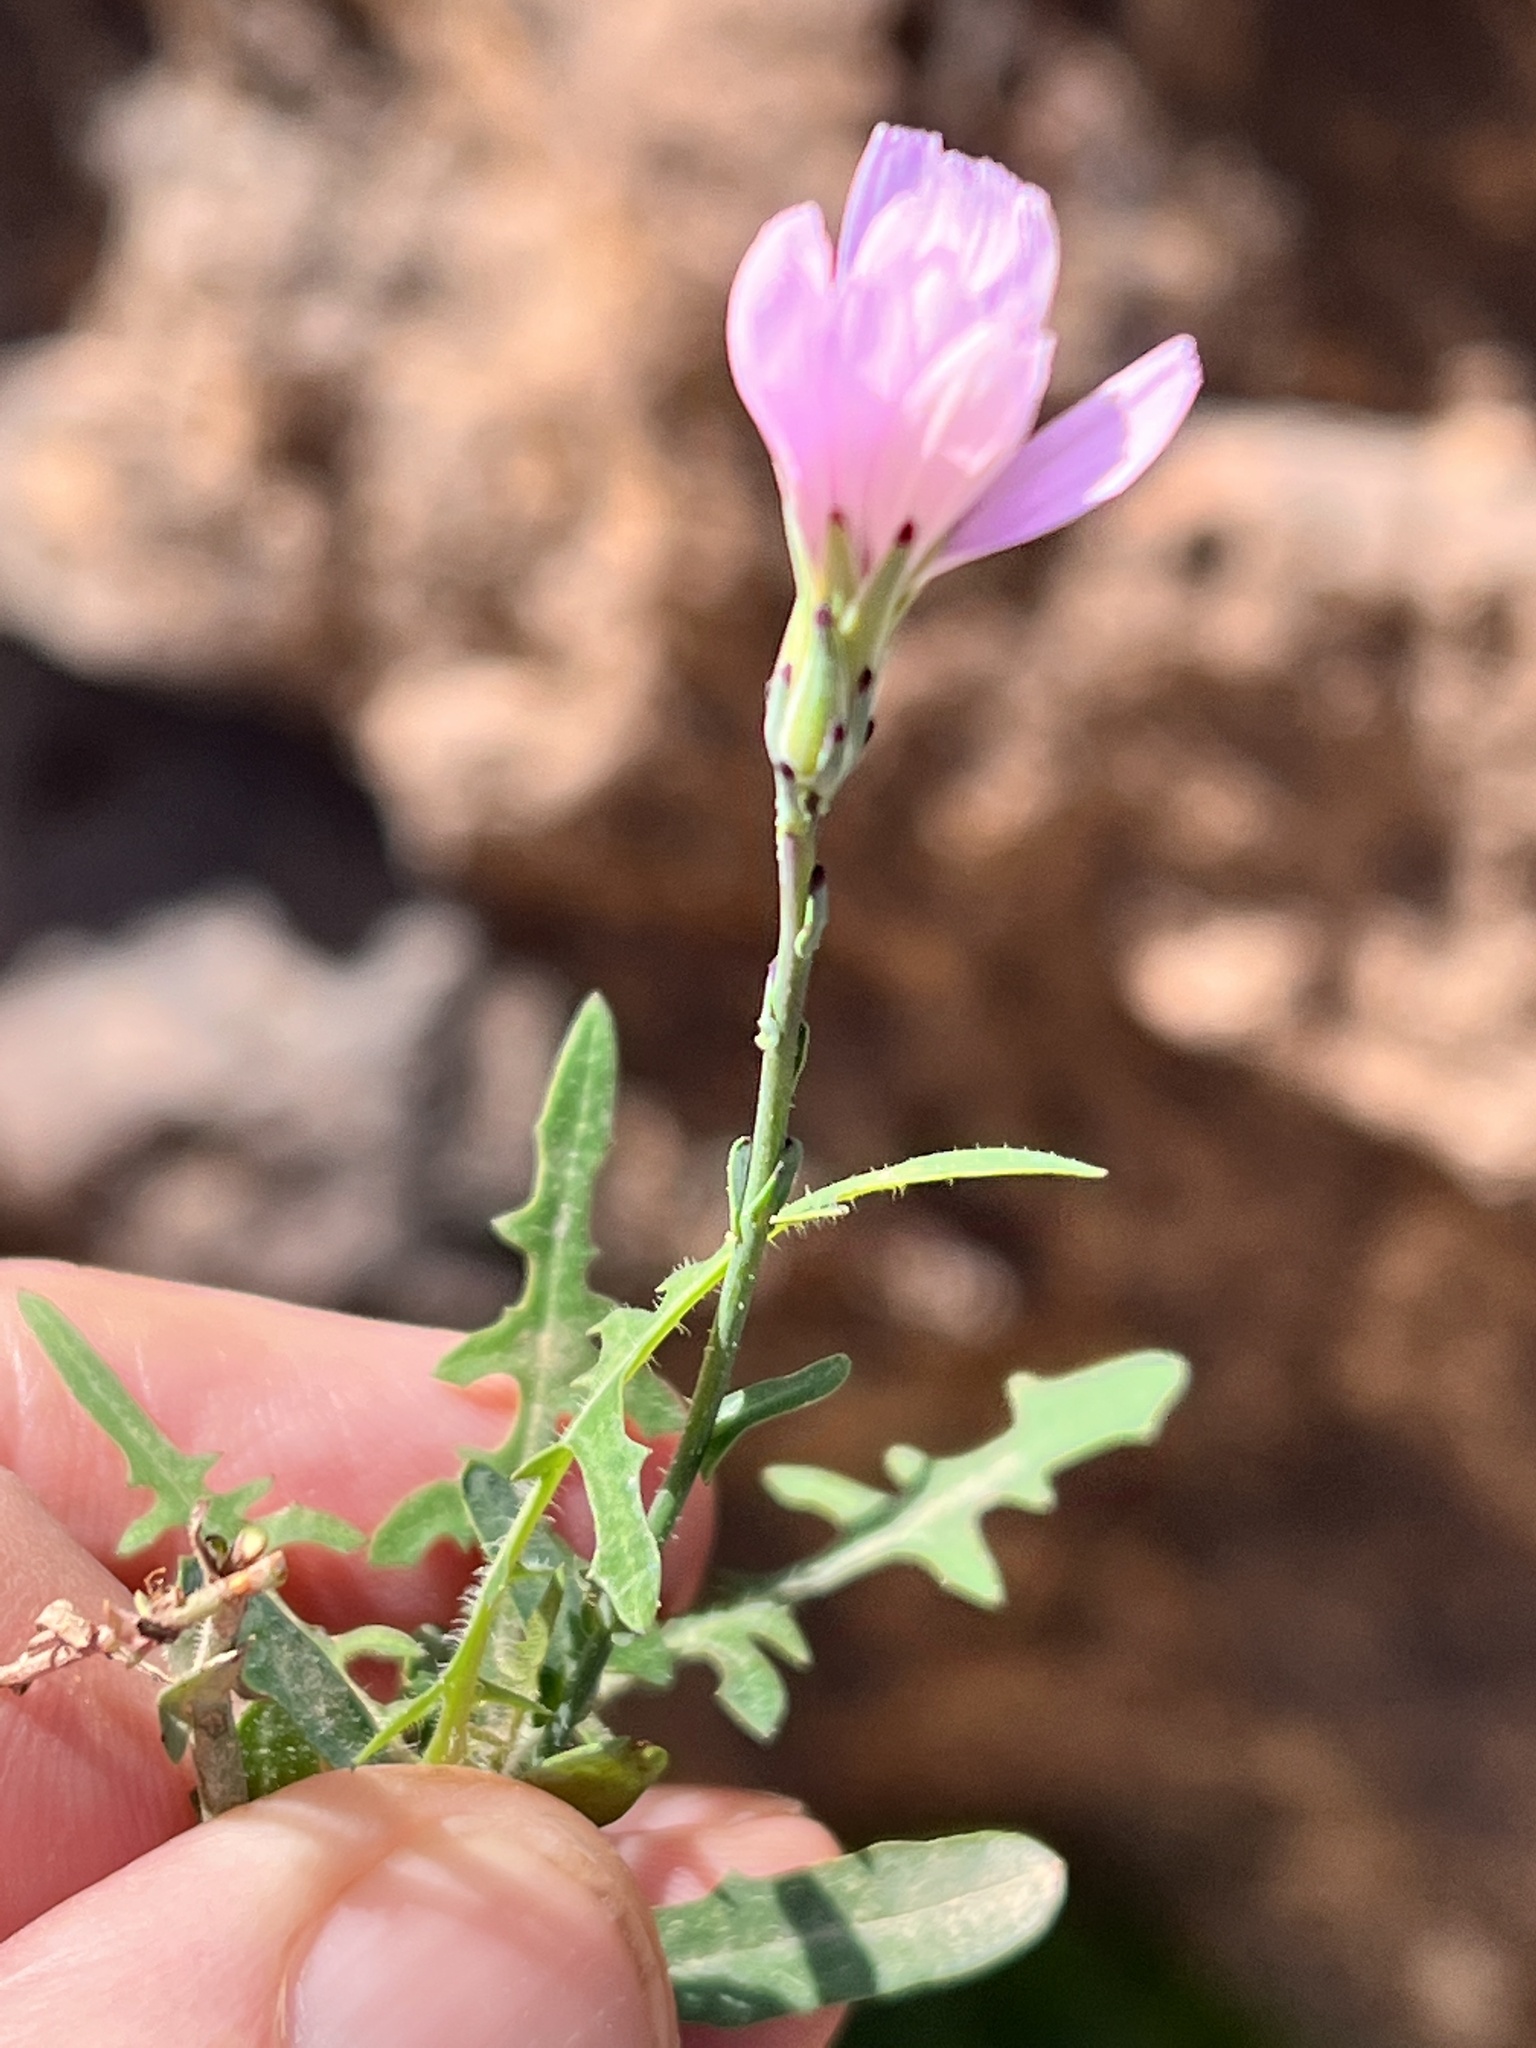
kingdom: Plantae
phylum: Tracheophyta
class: Magnoliopsida
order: Asterales
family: Asteraceae
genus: Lactuca
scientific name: Lactuca tenerrima
